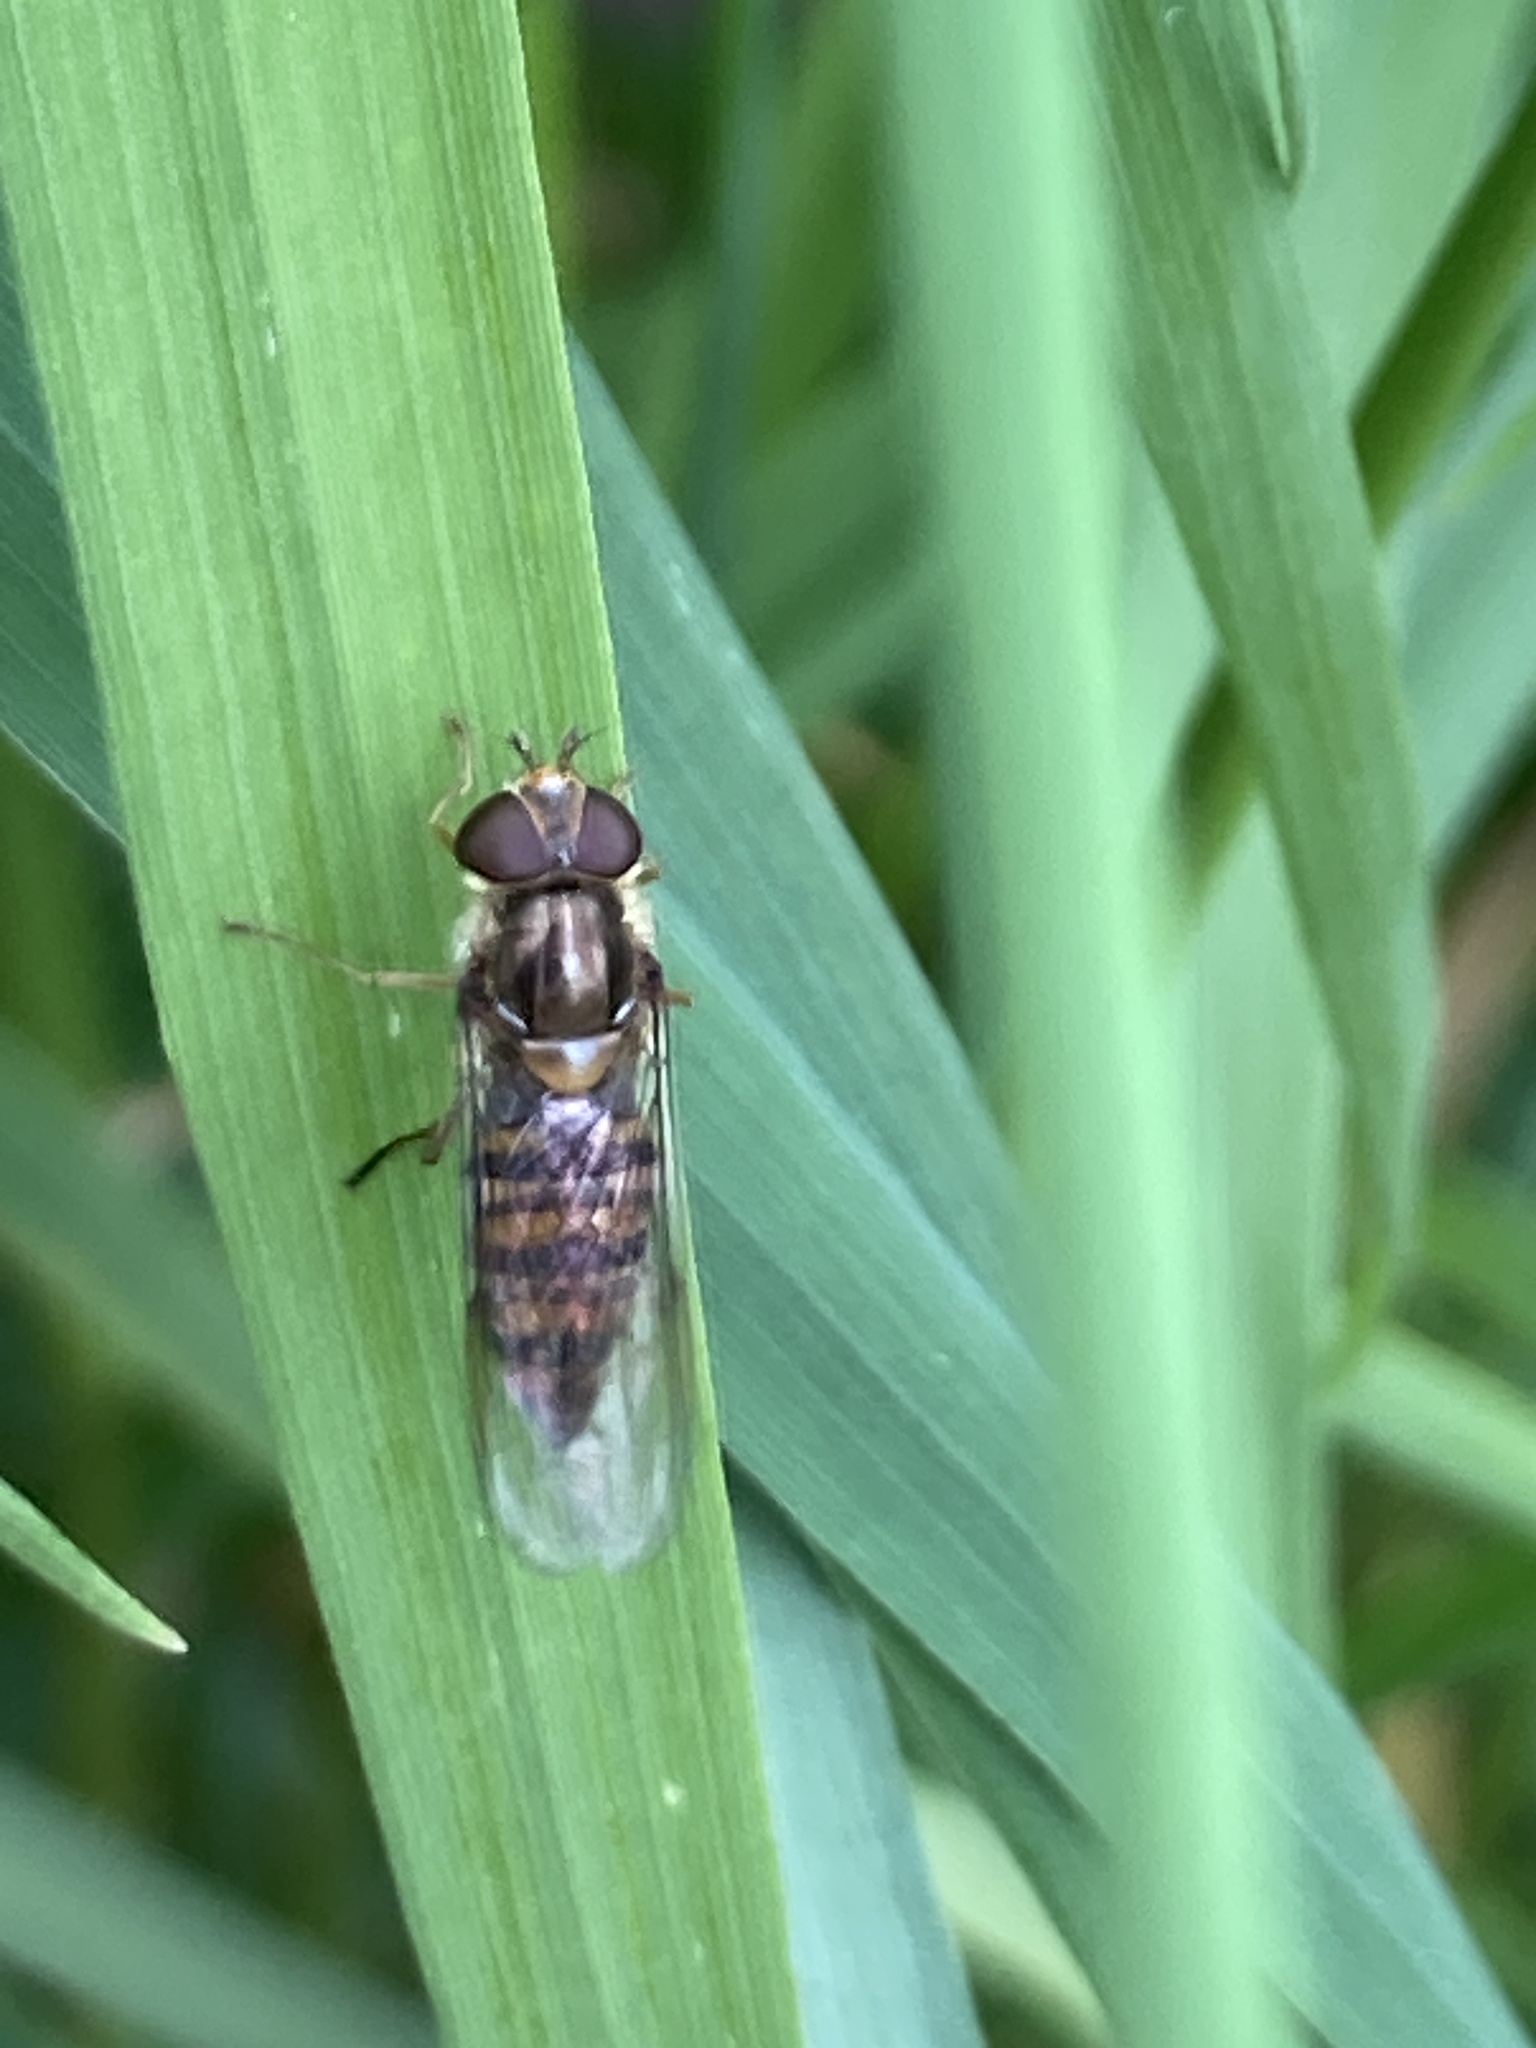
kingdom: Animalia
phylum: Arthropoda
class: Insecta
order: Diptera
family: Syrphidae
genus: Episyrphus
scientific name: Episyrphus balteatus
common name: Marmalade hoverfly
